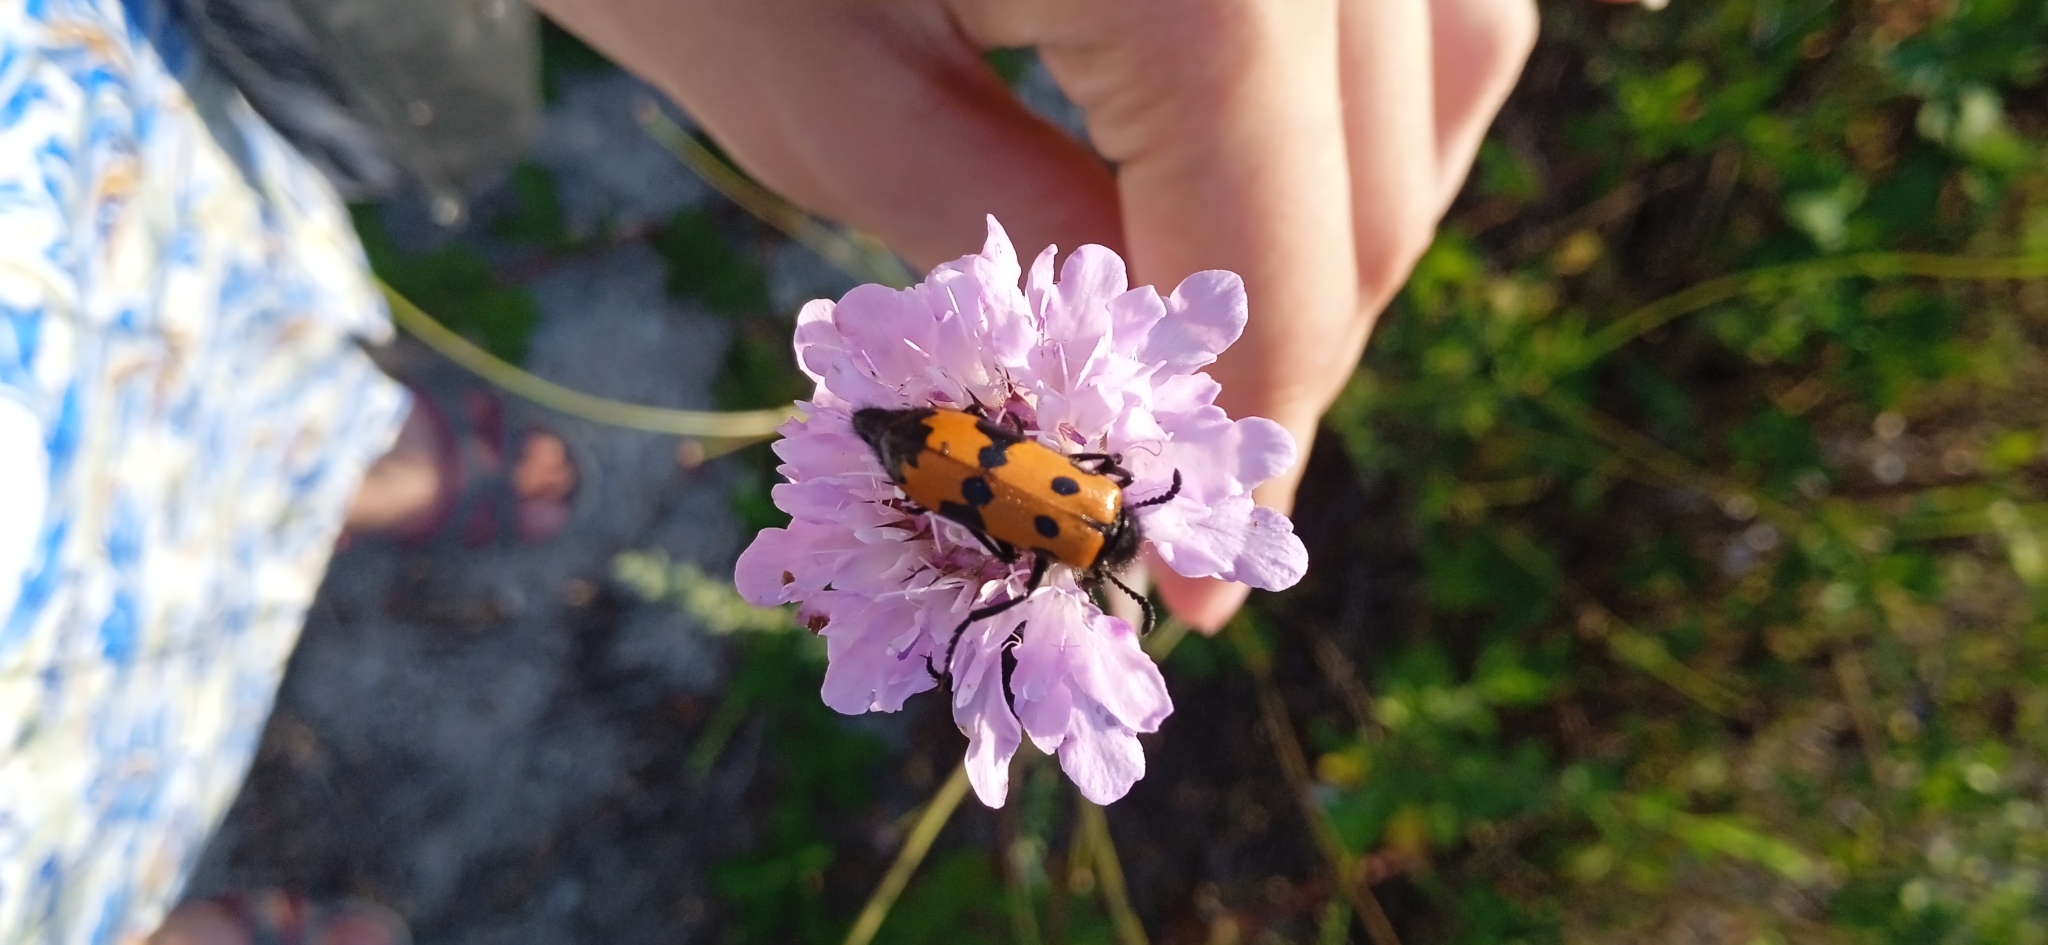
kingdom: Animalia
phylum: Arthropoda
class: Insecta
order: Coleoptera
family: Meloidae
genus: Mylabris
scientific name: Mylabris quadripunctata
